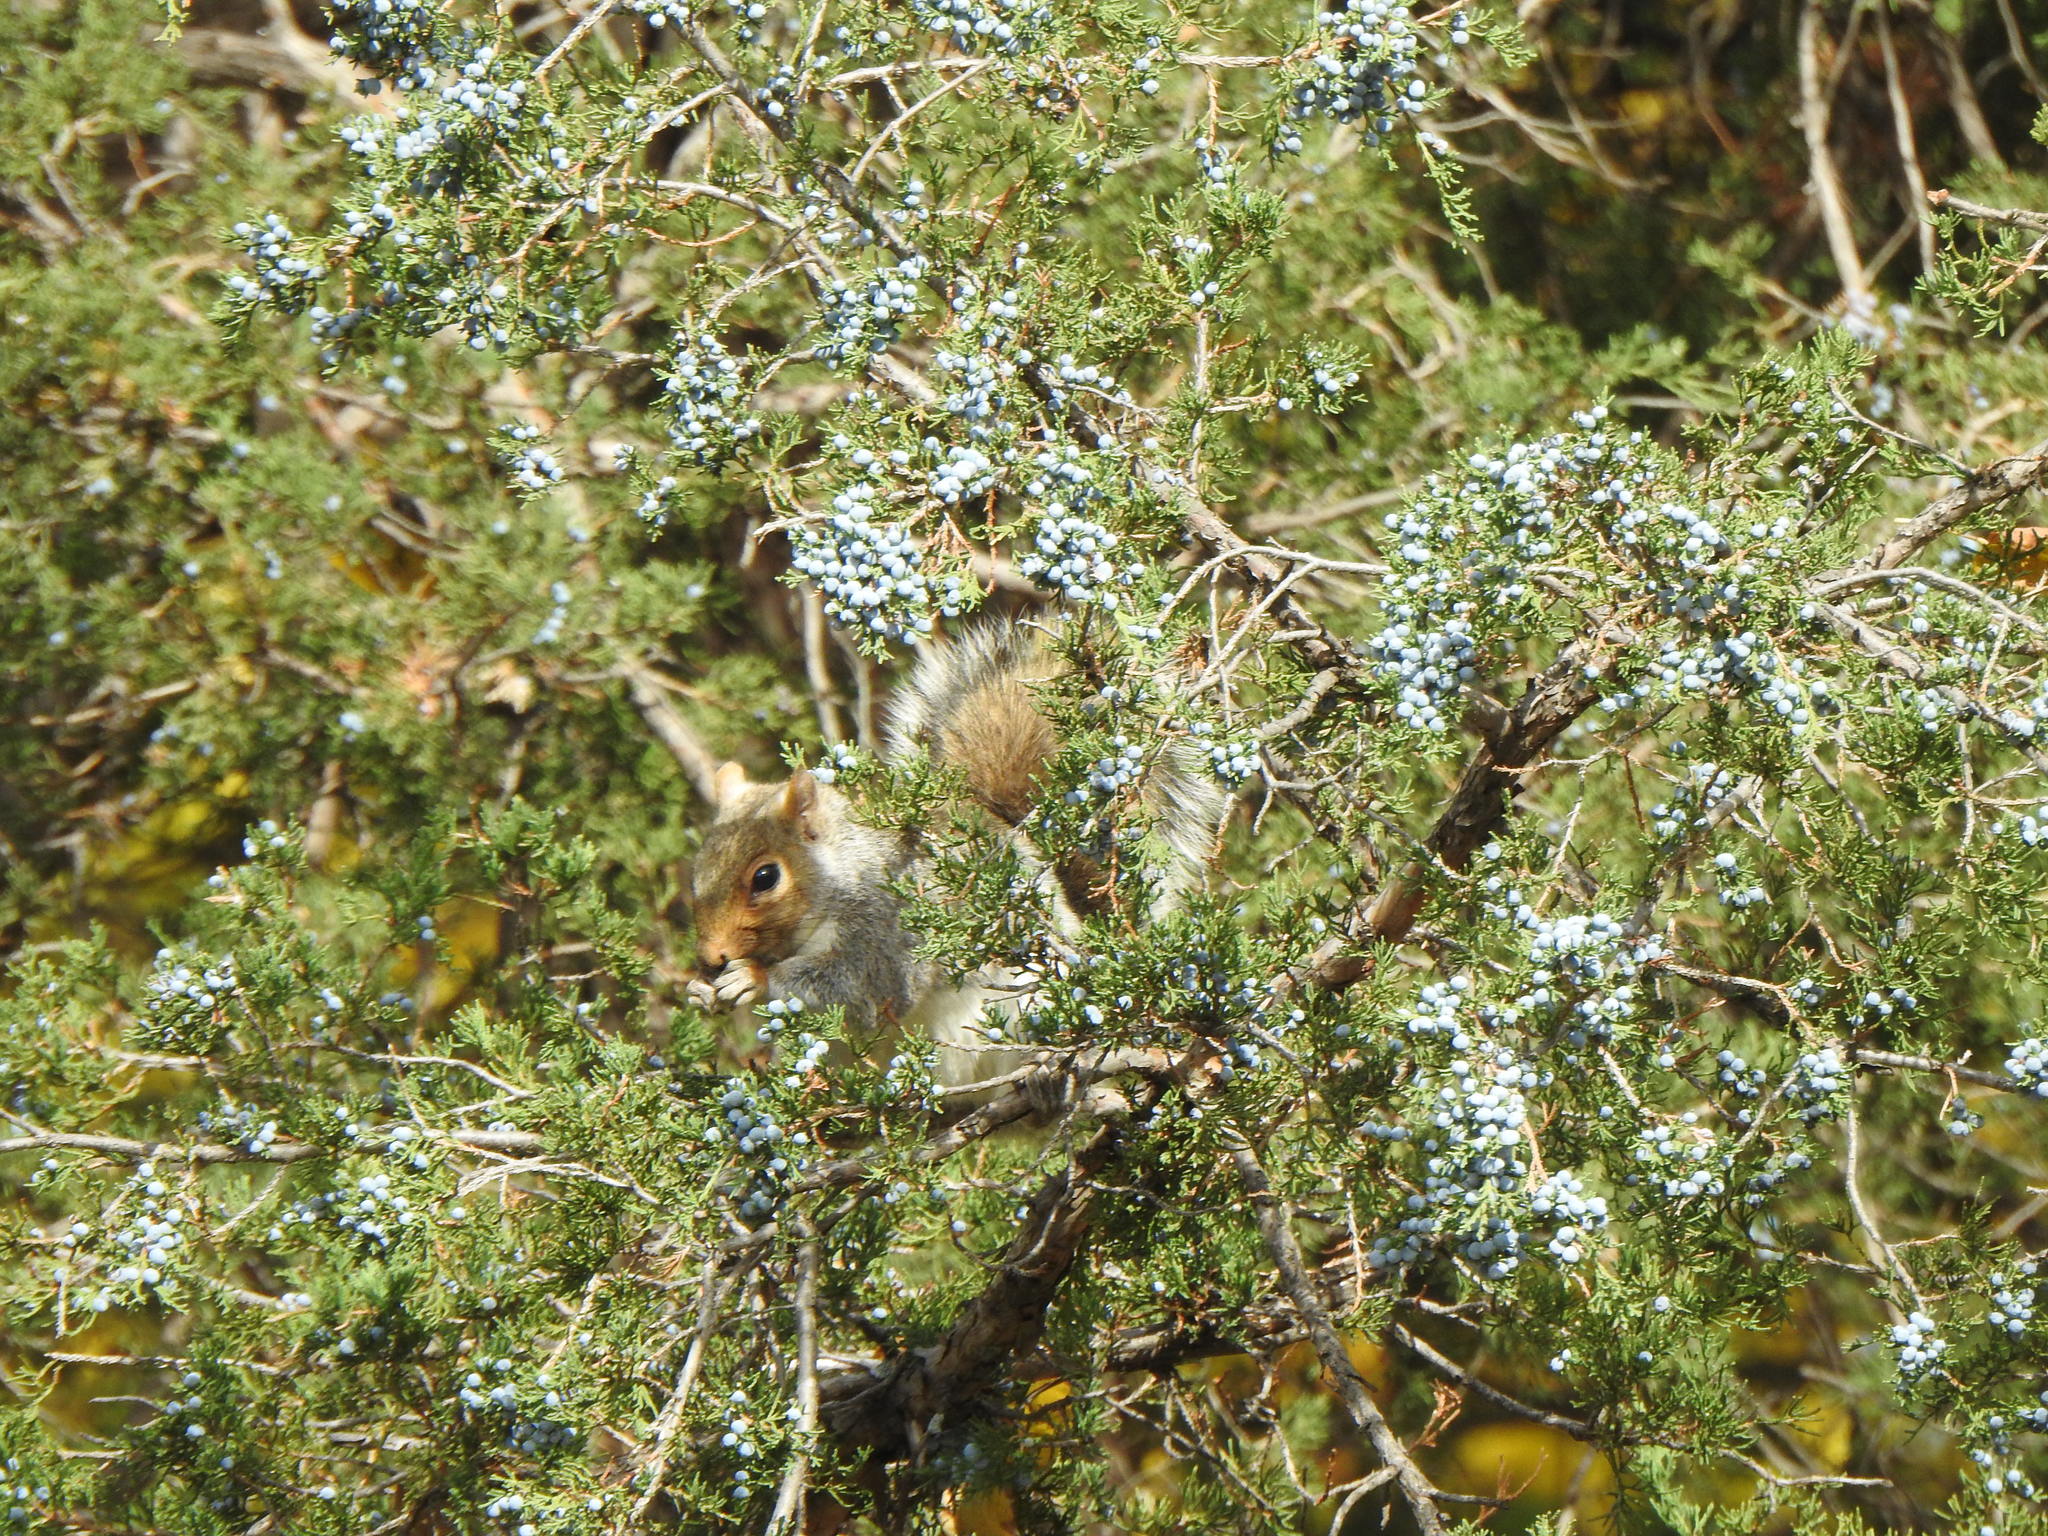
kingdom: Animalia
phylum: Chordata
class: Mammalia
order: Rodentia
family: Sciuridae
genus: Sciurus
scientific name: Sciurus carolinensis
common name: Eastern gray squirrel
